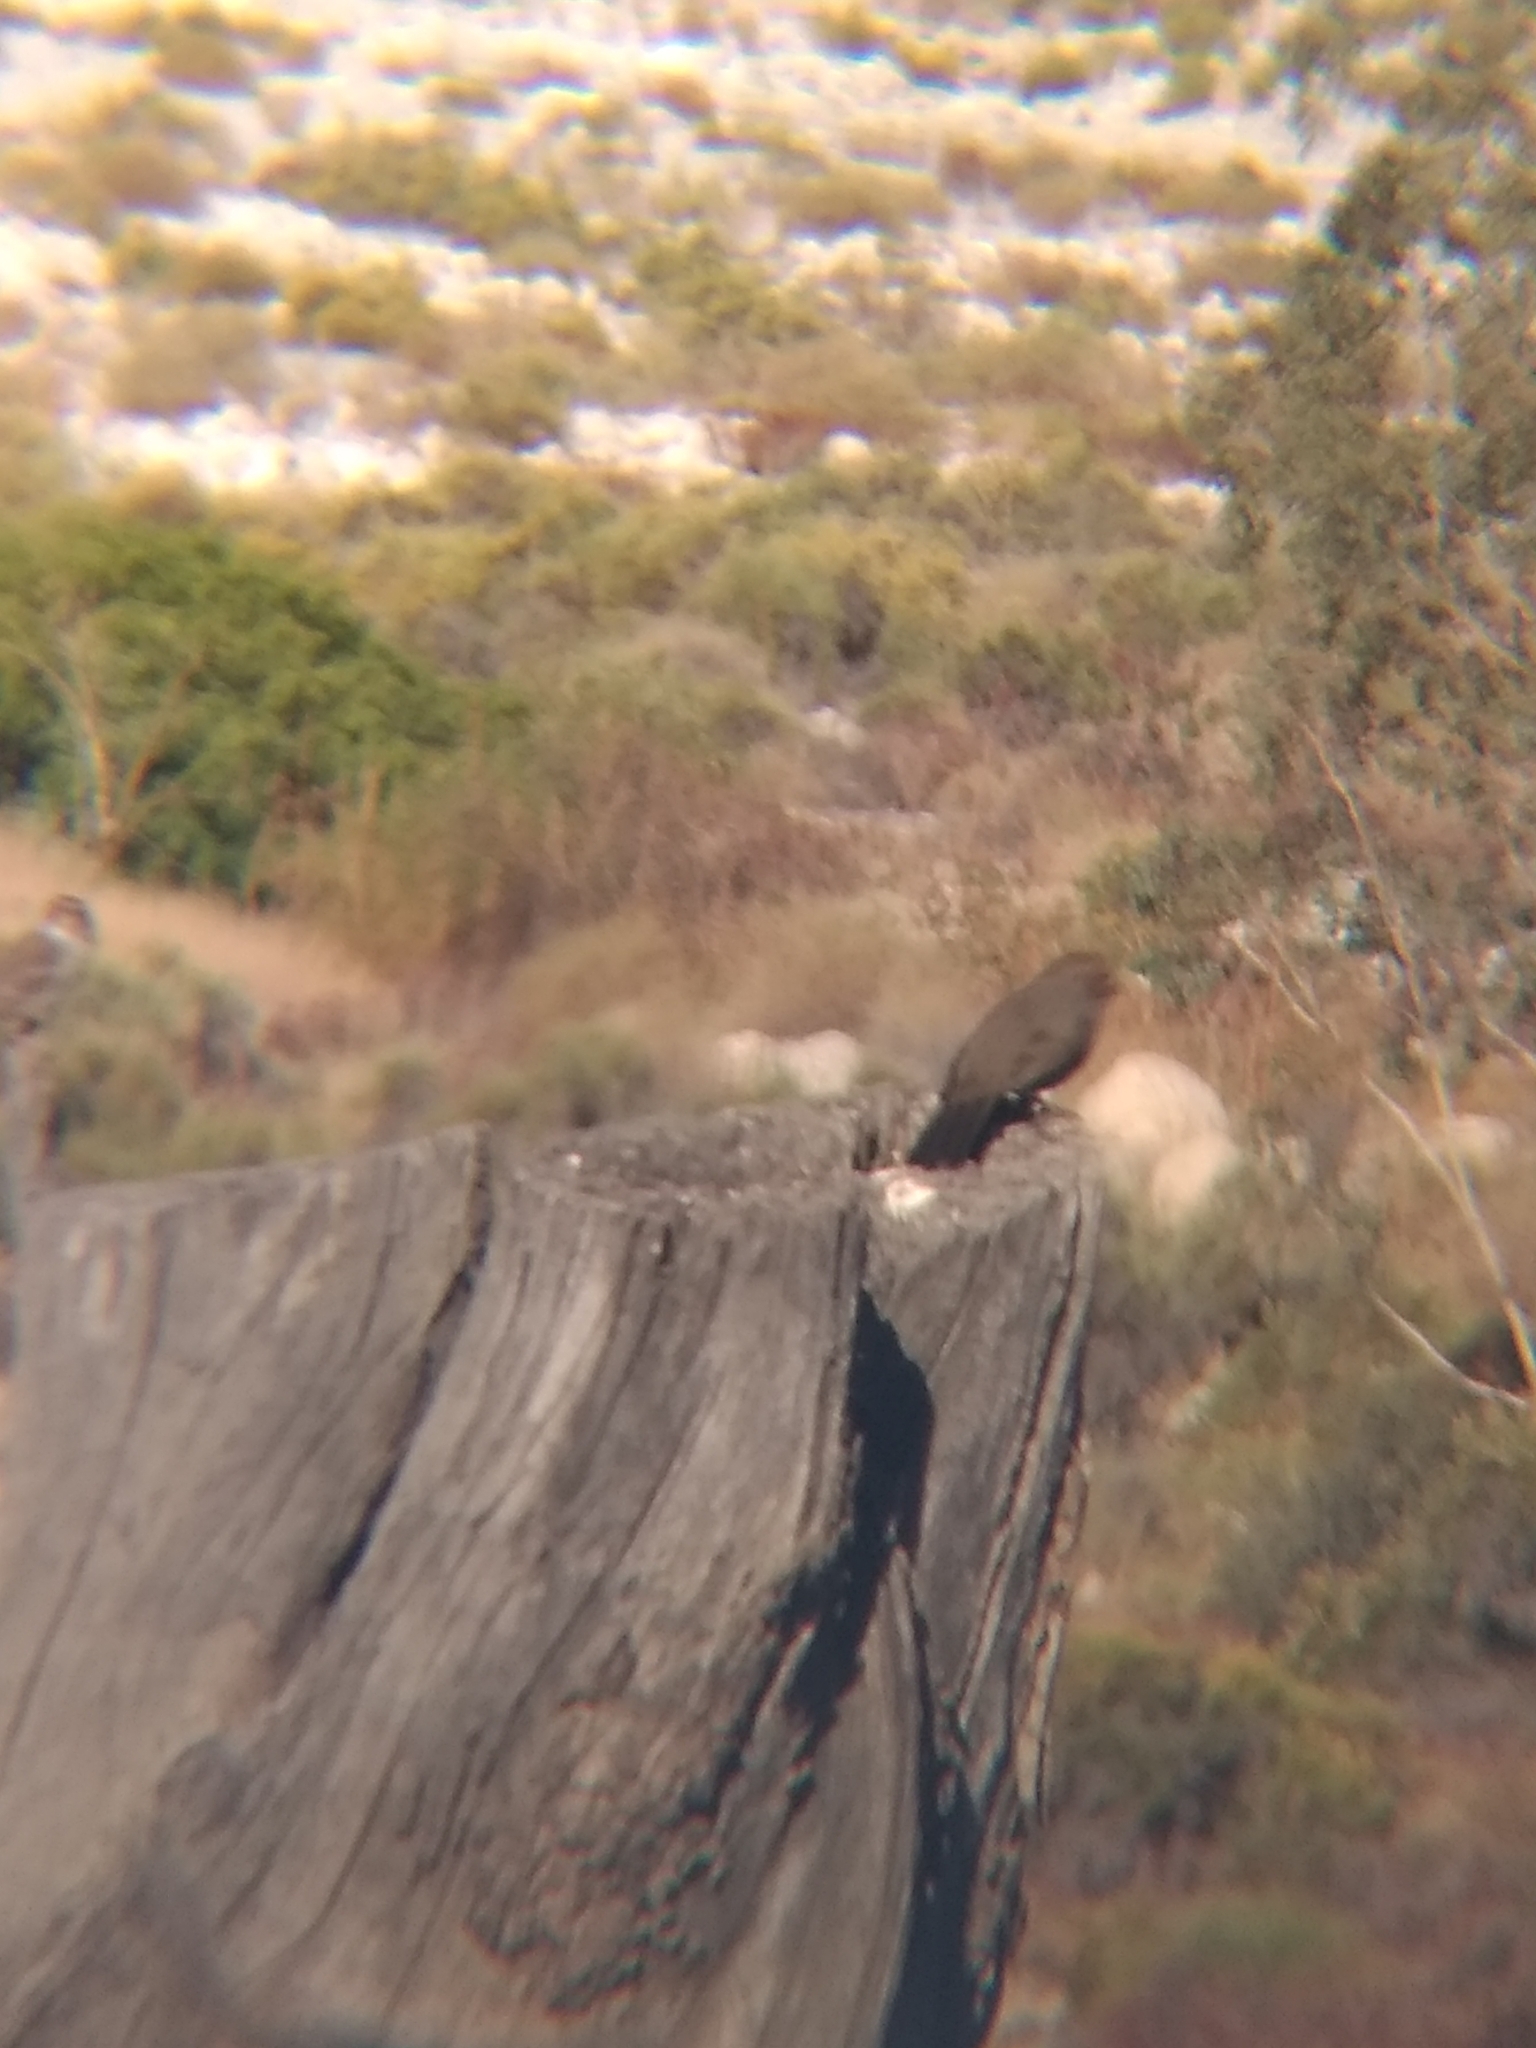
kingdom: Animalia
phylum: Chordata
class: Aves
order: Passeriformes
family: Passerellidae
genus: Melozone
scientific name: Melozone crissalis
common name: California towhee
